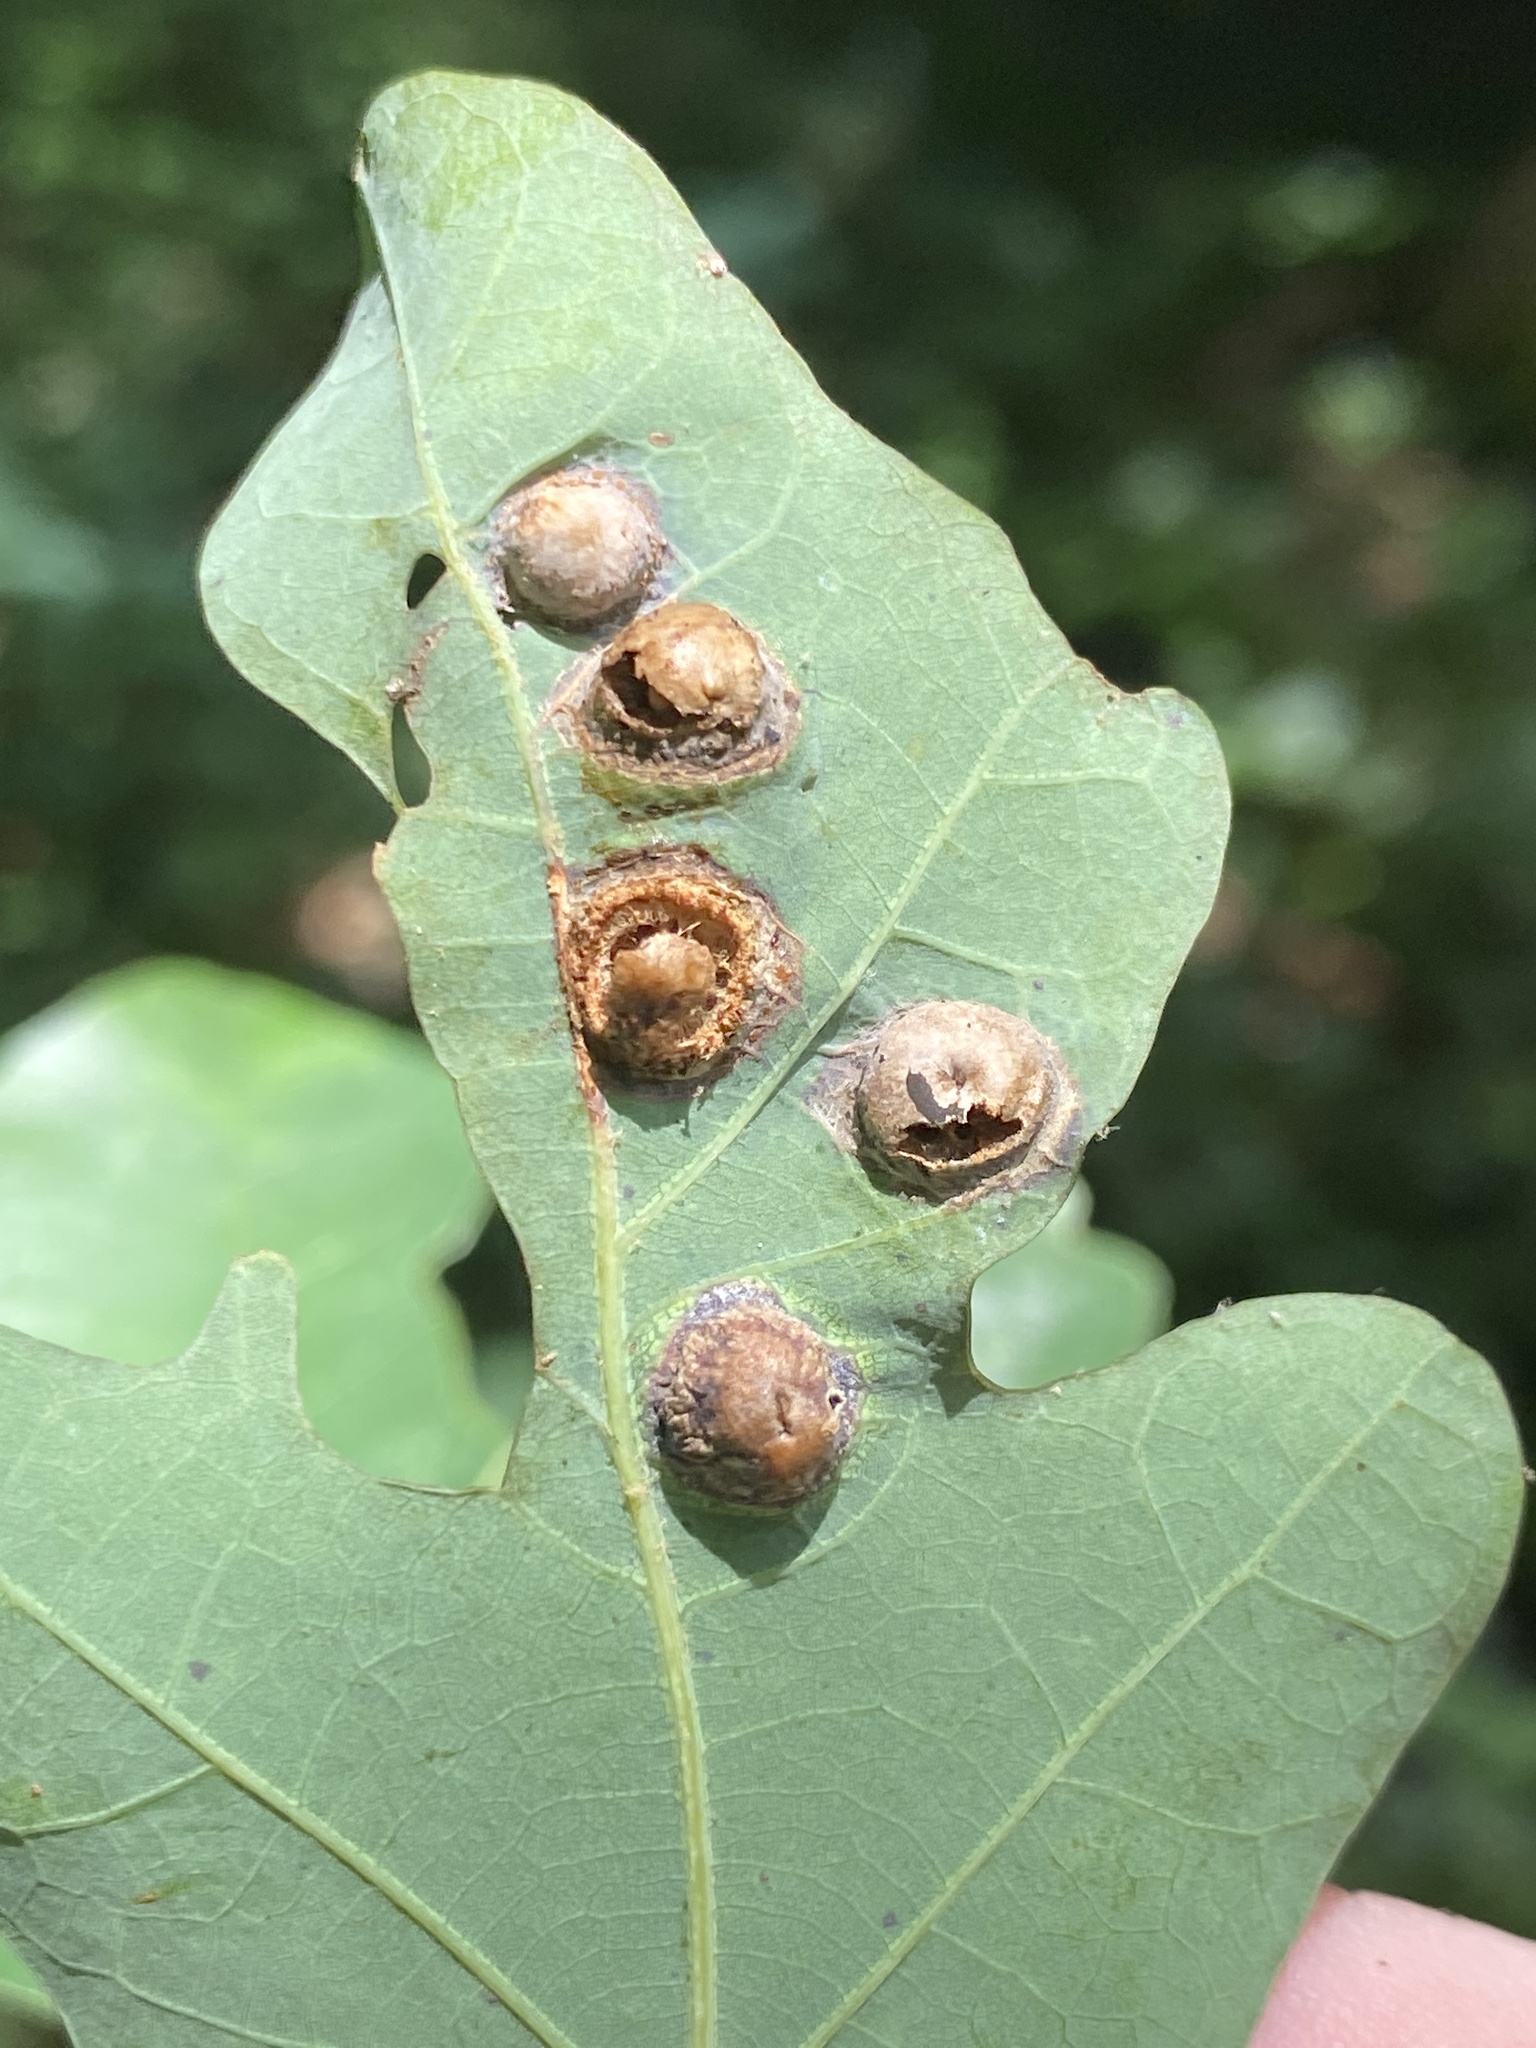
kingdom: Animalia
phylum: Arthropoda
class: Insecta
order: Hymenoptera
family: Cynipidae
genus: Callirhytis
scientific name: Callirhytis
